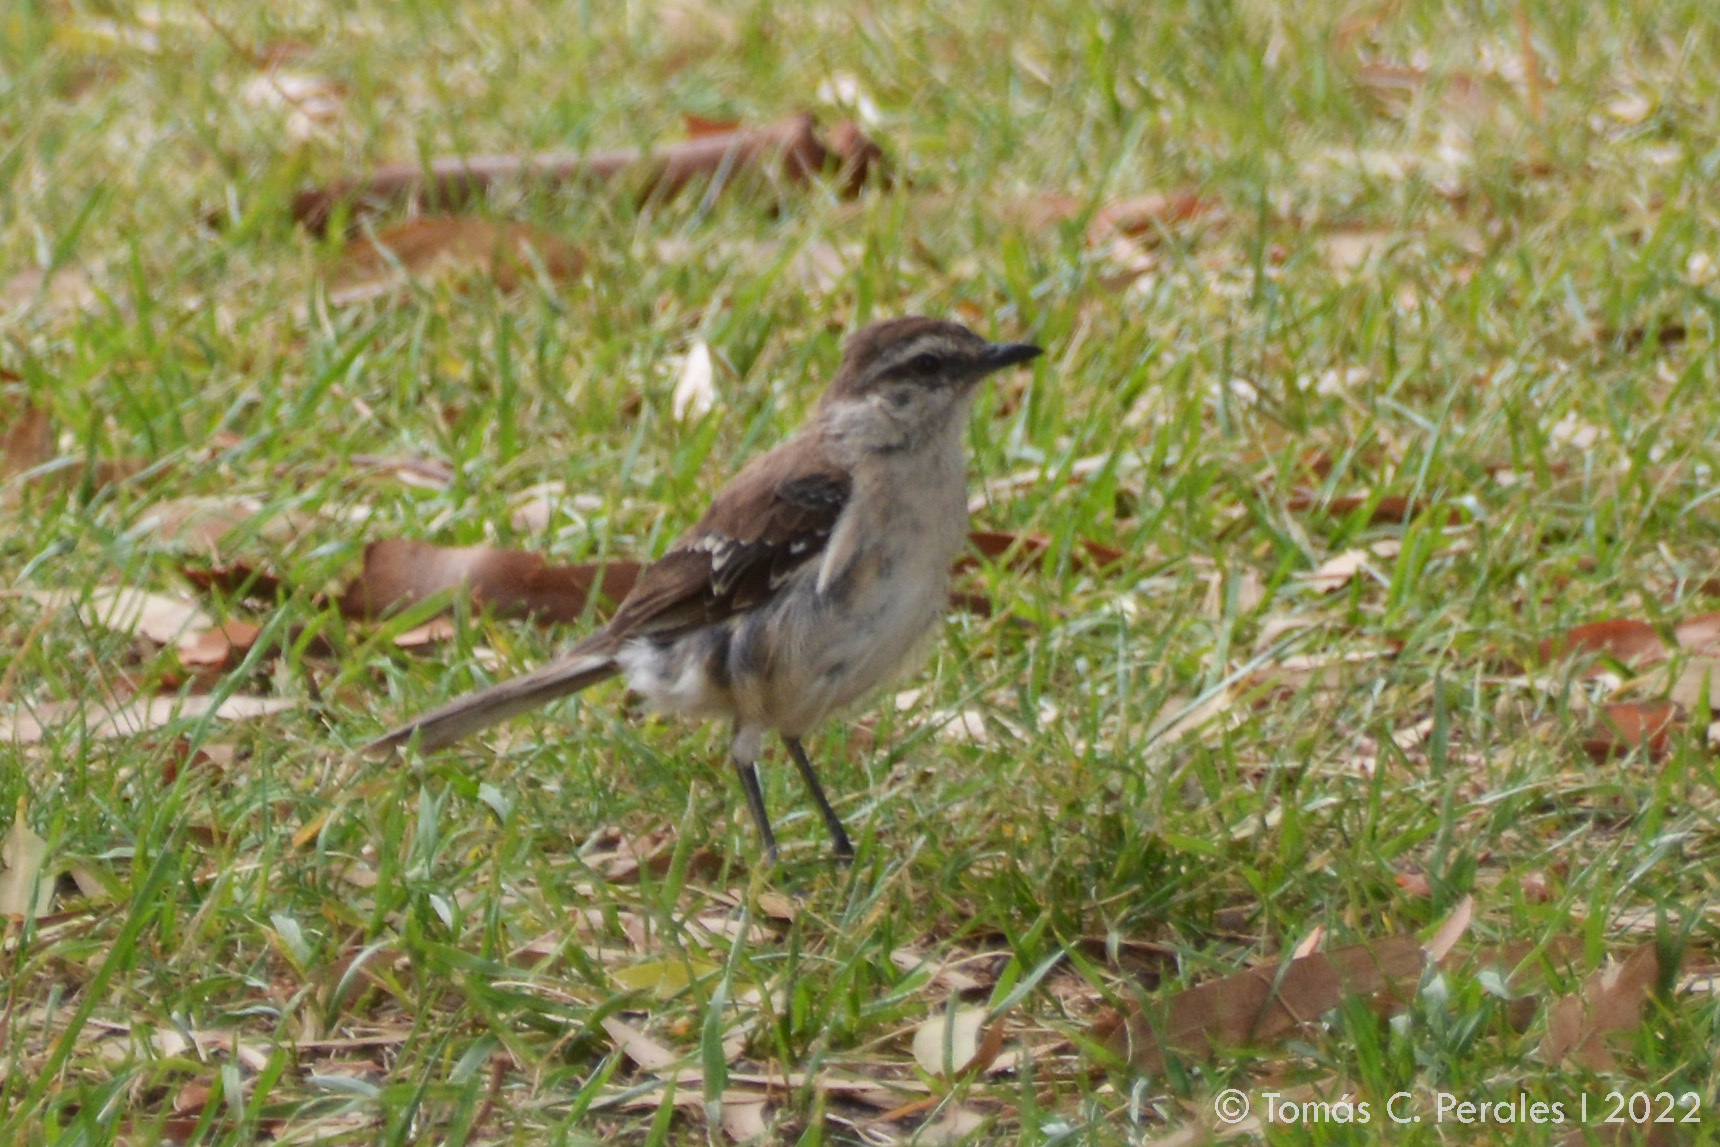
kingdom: Animalia
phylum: Chordata
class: Aves
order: Passeriformes
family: Mimidae
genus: Mimus
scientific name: Mimus saturninus
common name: Chalk-browed mockingbird
